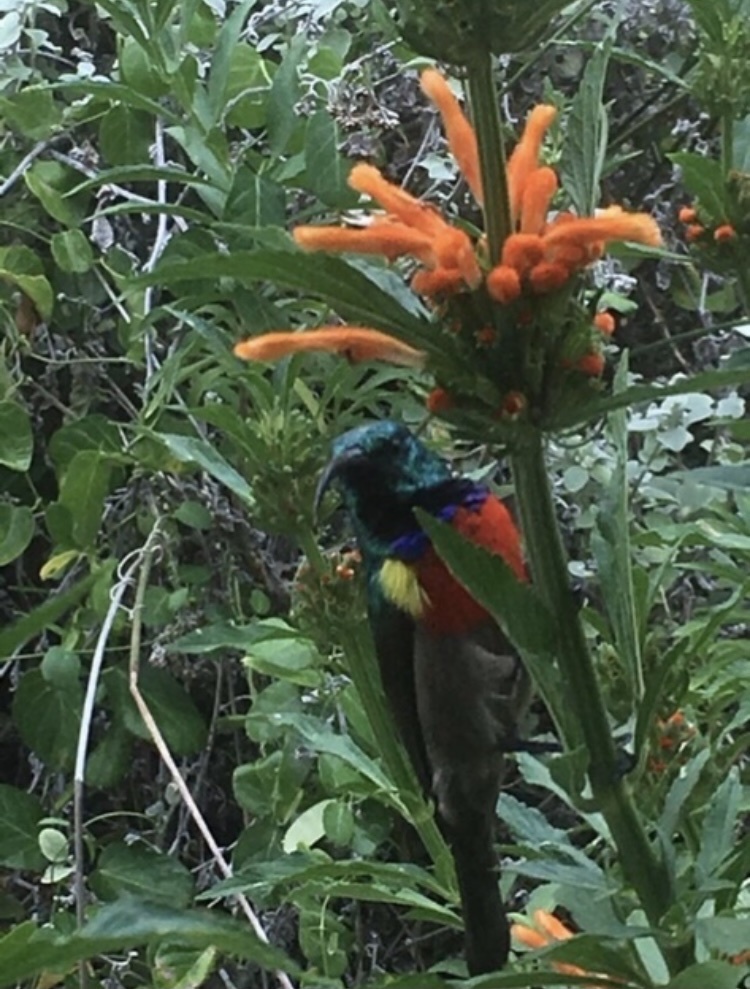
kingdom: Animalia
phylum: Chordata
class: Aves
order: Passeriformes
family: Nectariniidae
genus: Cinnyris
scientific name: Cinnyris afer
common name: Greater double-collared sunbird
